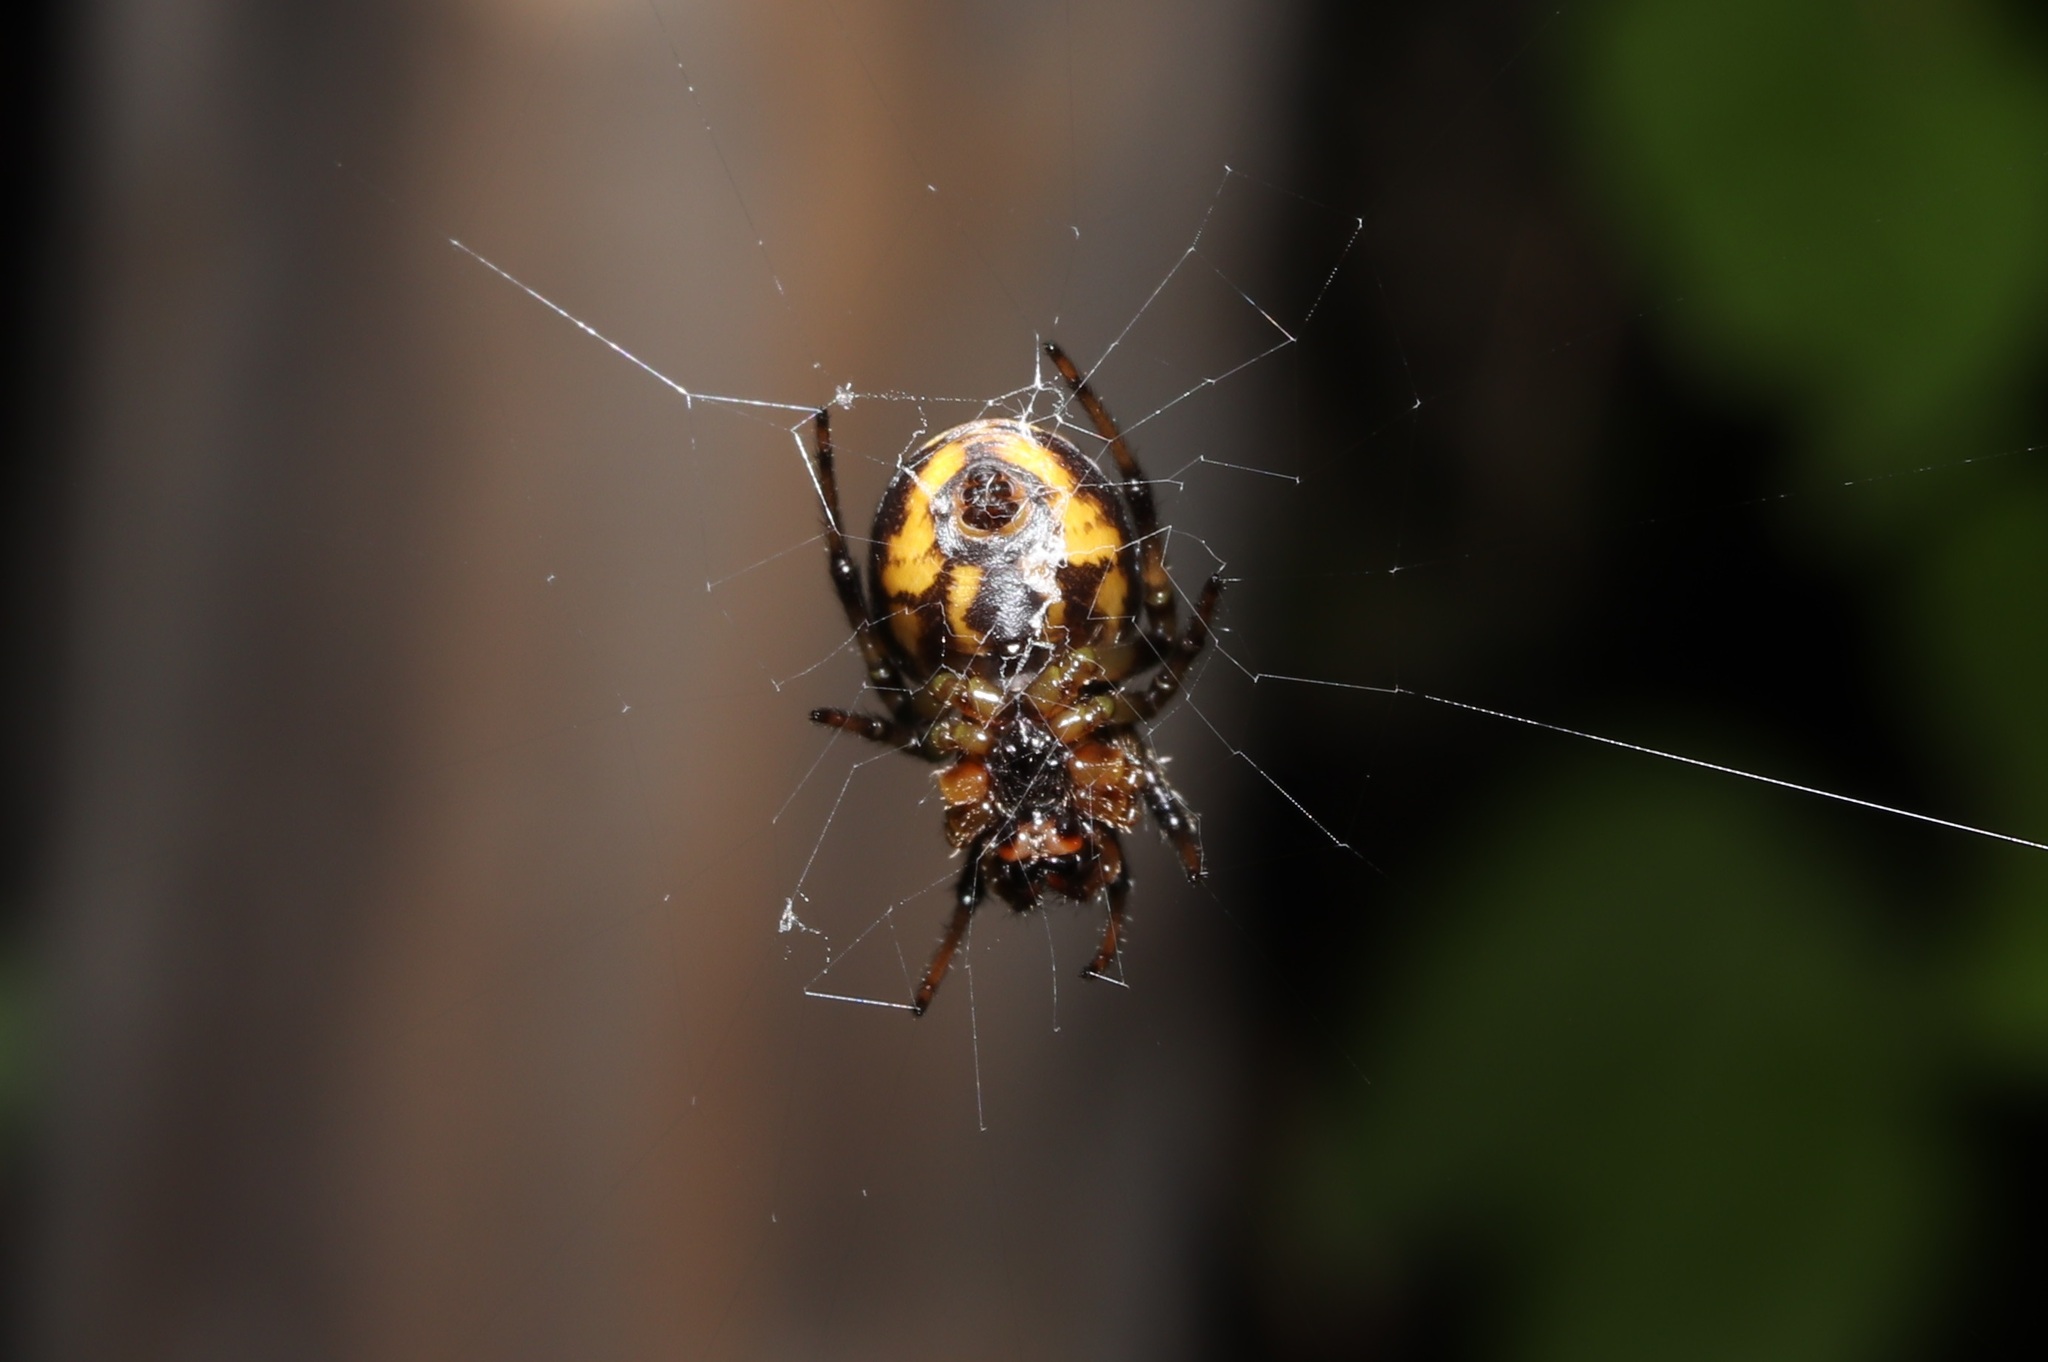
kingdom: Animalia
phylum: Arthropoda
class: Arachnida
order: Araneae
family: Araneidae
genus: Araneus
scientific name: Araneus ejusmodi
